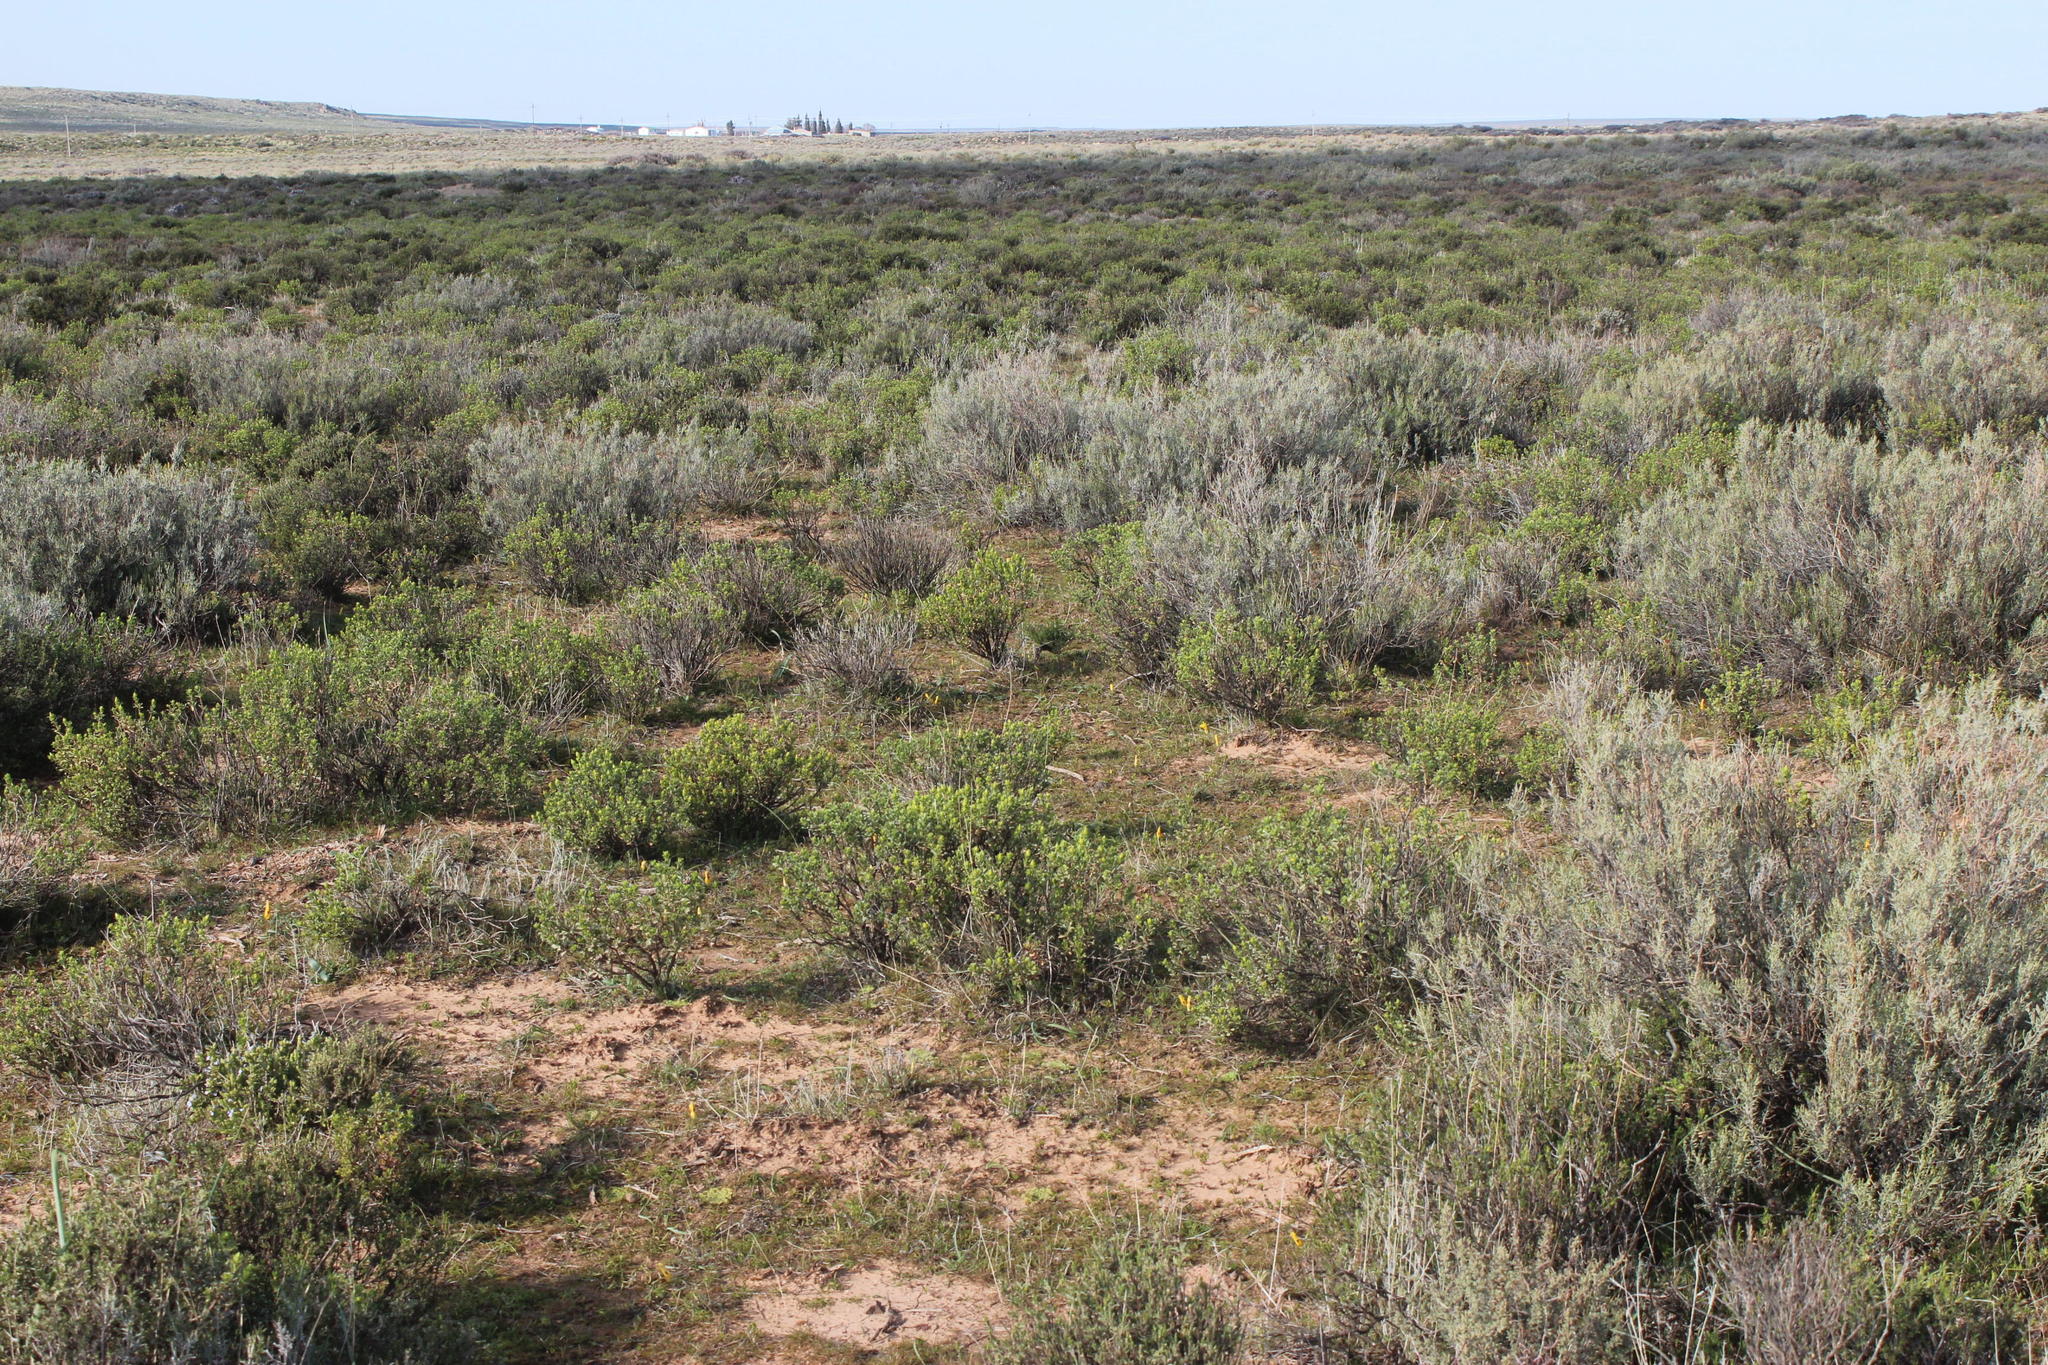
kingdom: Plantae
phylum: Tracheophyta
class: Magnoliopsida
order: Asterales
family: Asteraceae
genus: Dicerothamnus
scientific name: Dicerothamnus rhinocerotis
